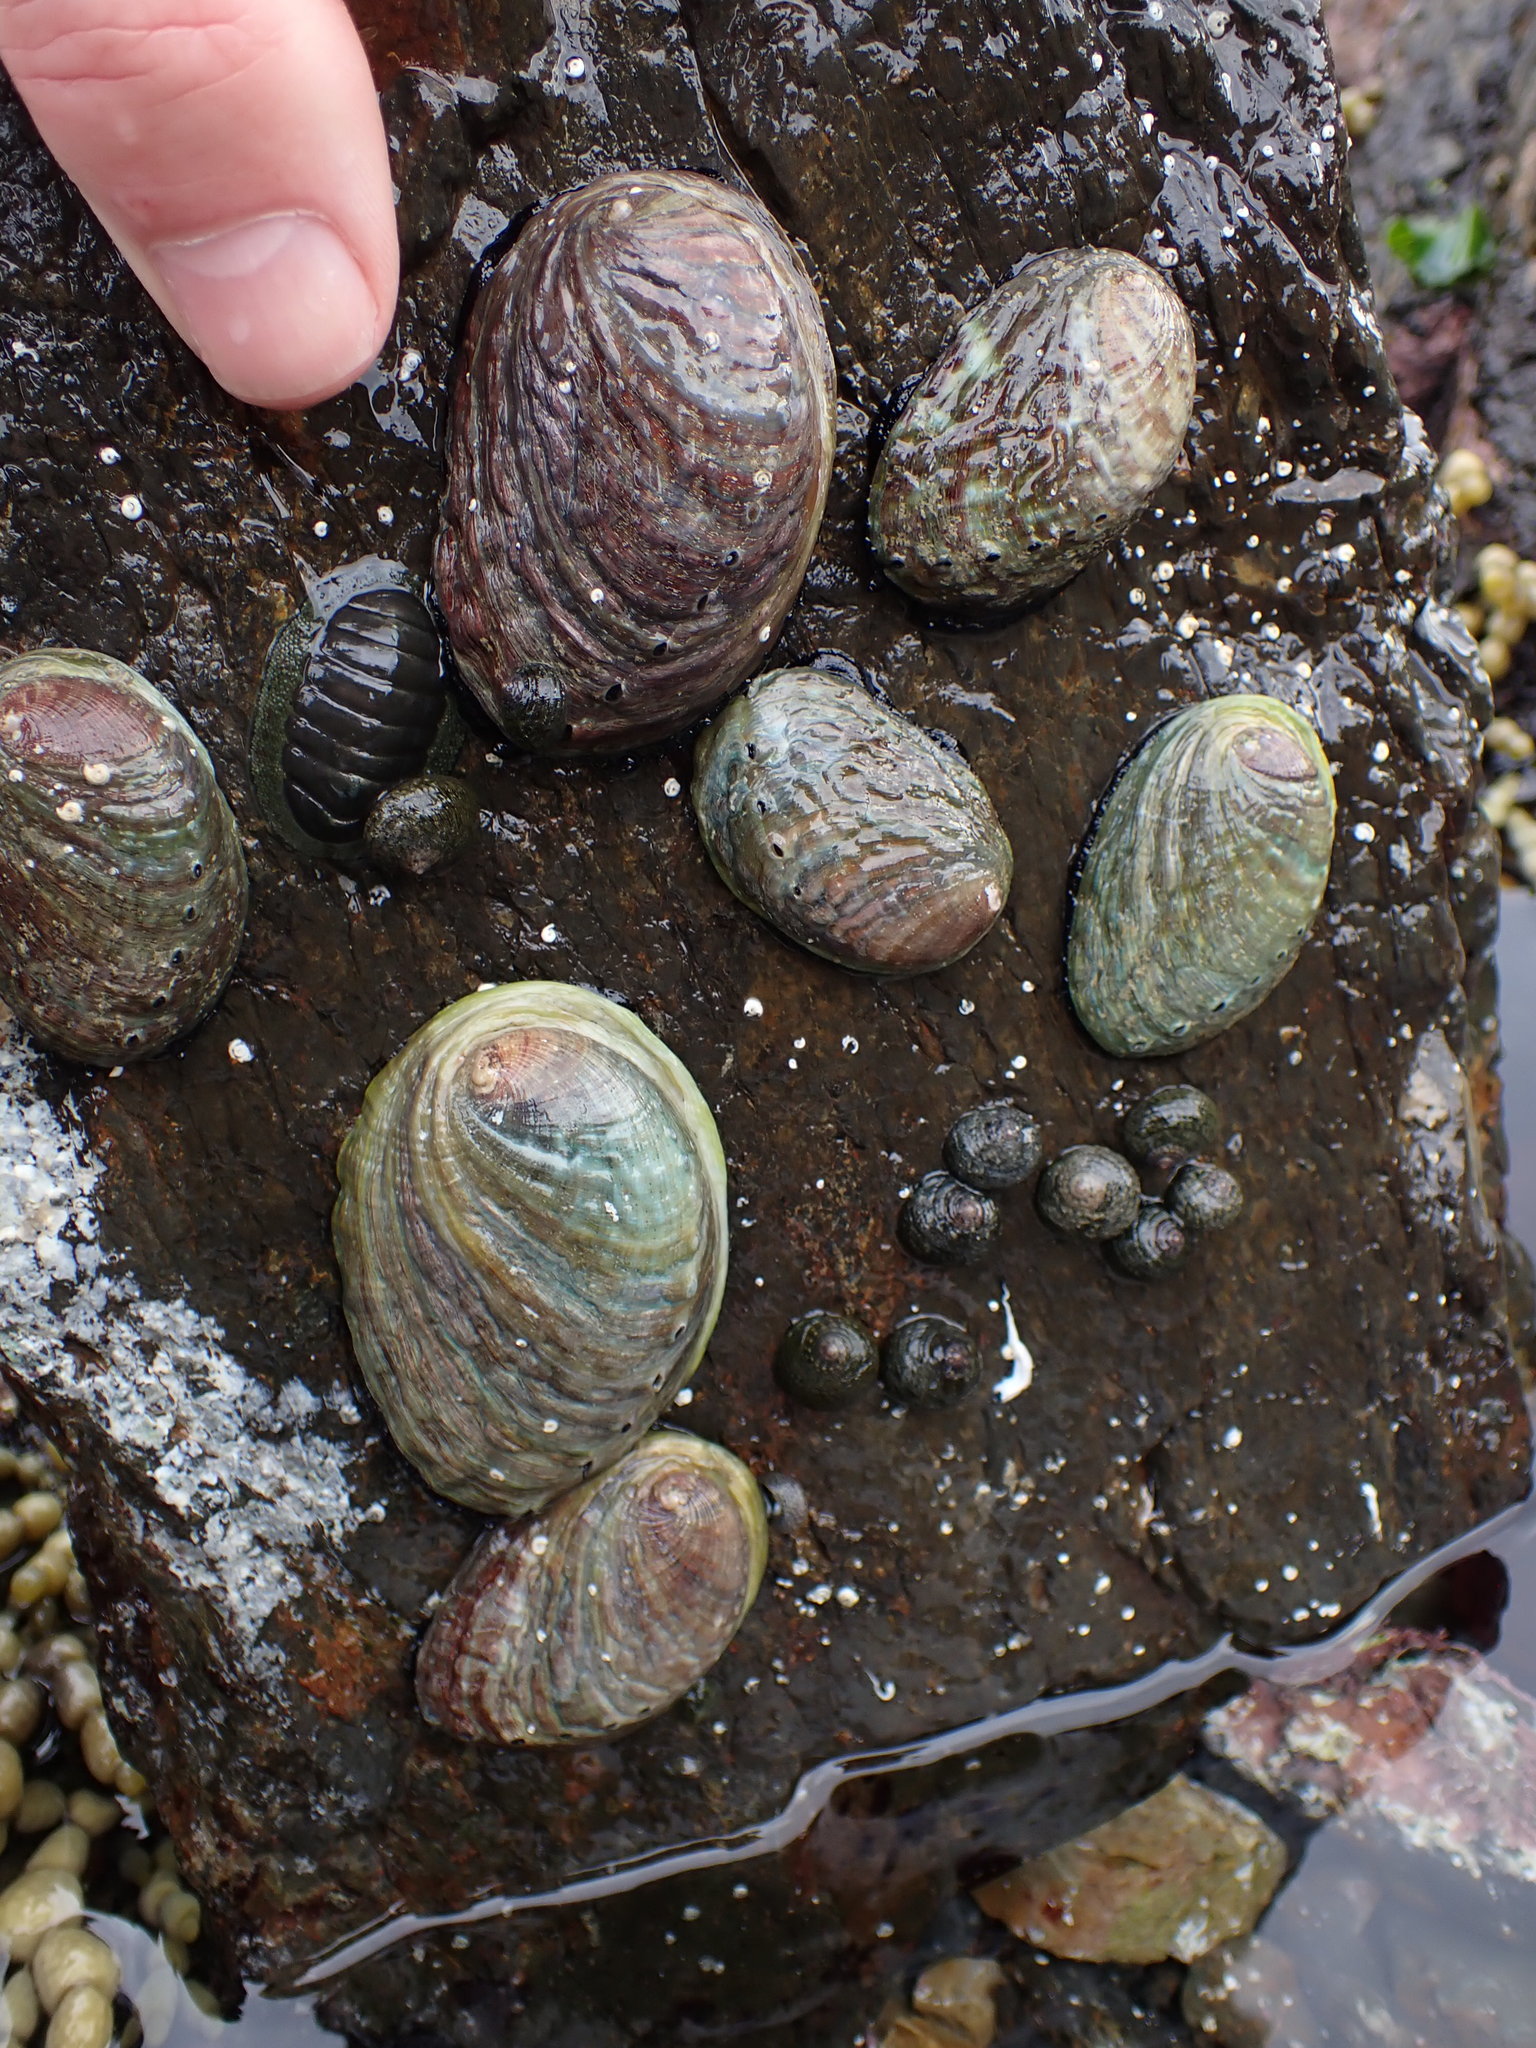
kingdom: Animalia
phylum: Mollusca
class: Gastropoda
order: Lepetellida
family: Haliotidae
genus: Haliotis
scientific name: Haliotis iris
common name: Abalone
